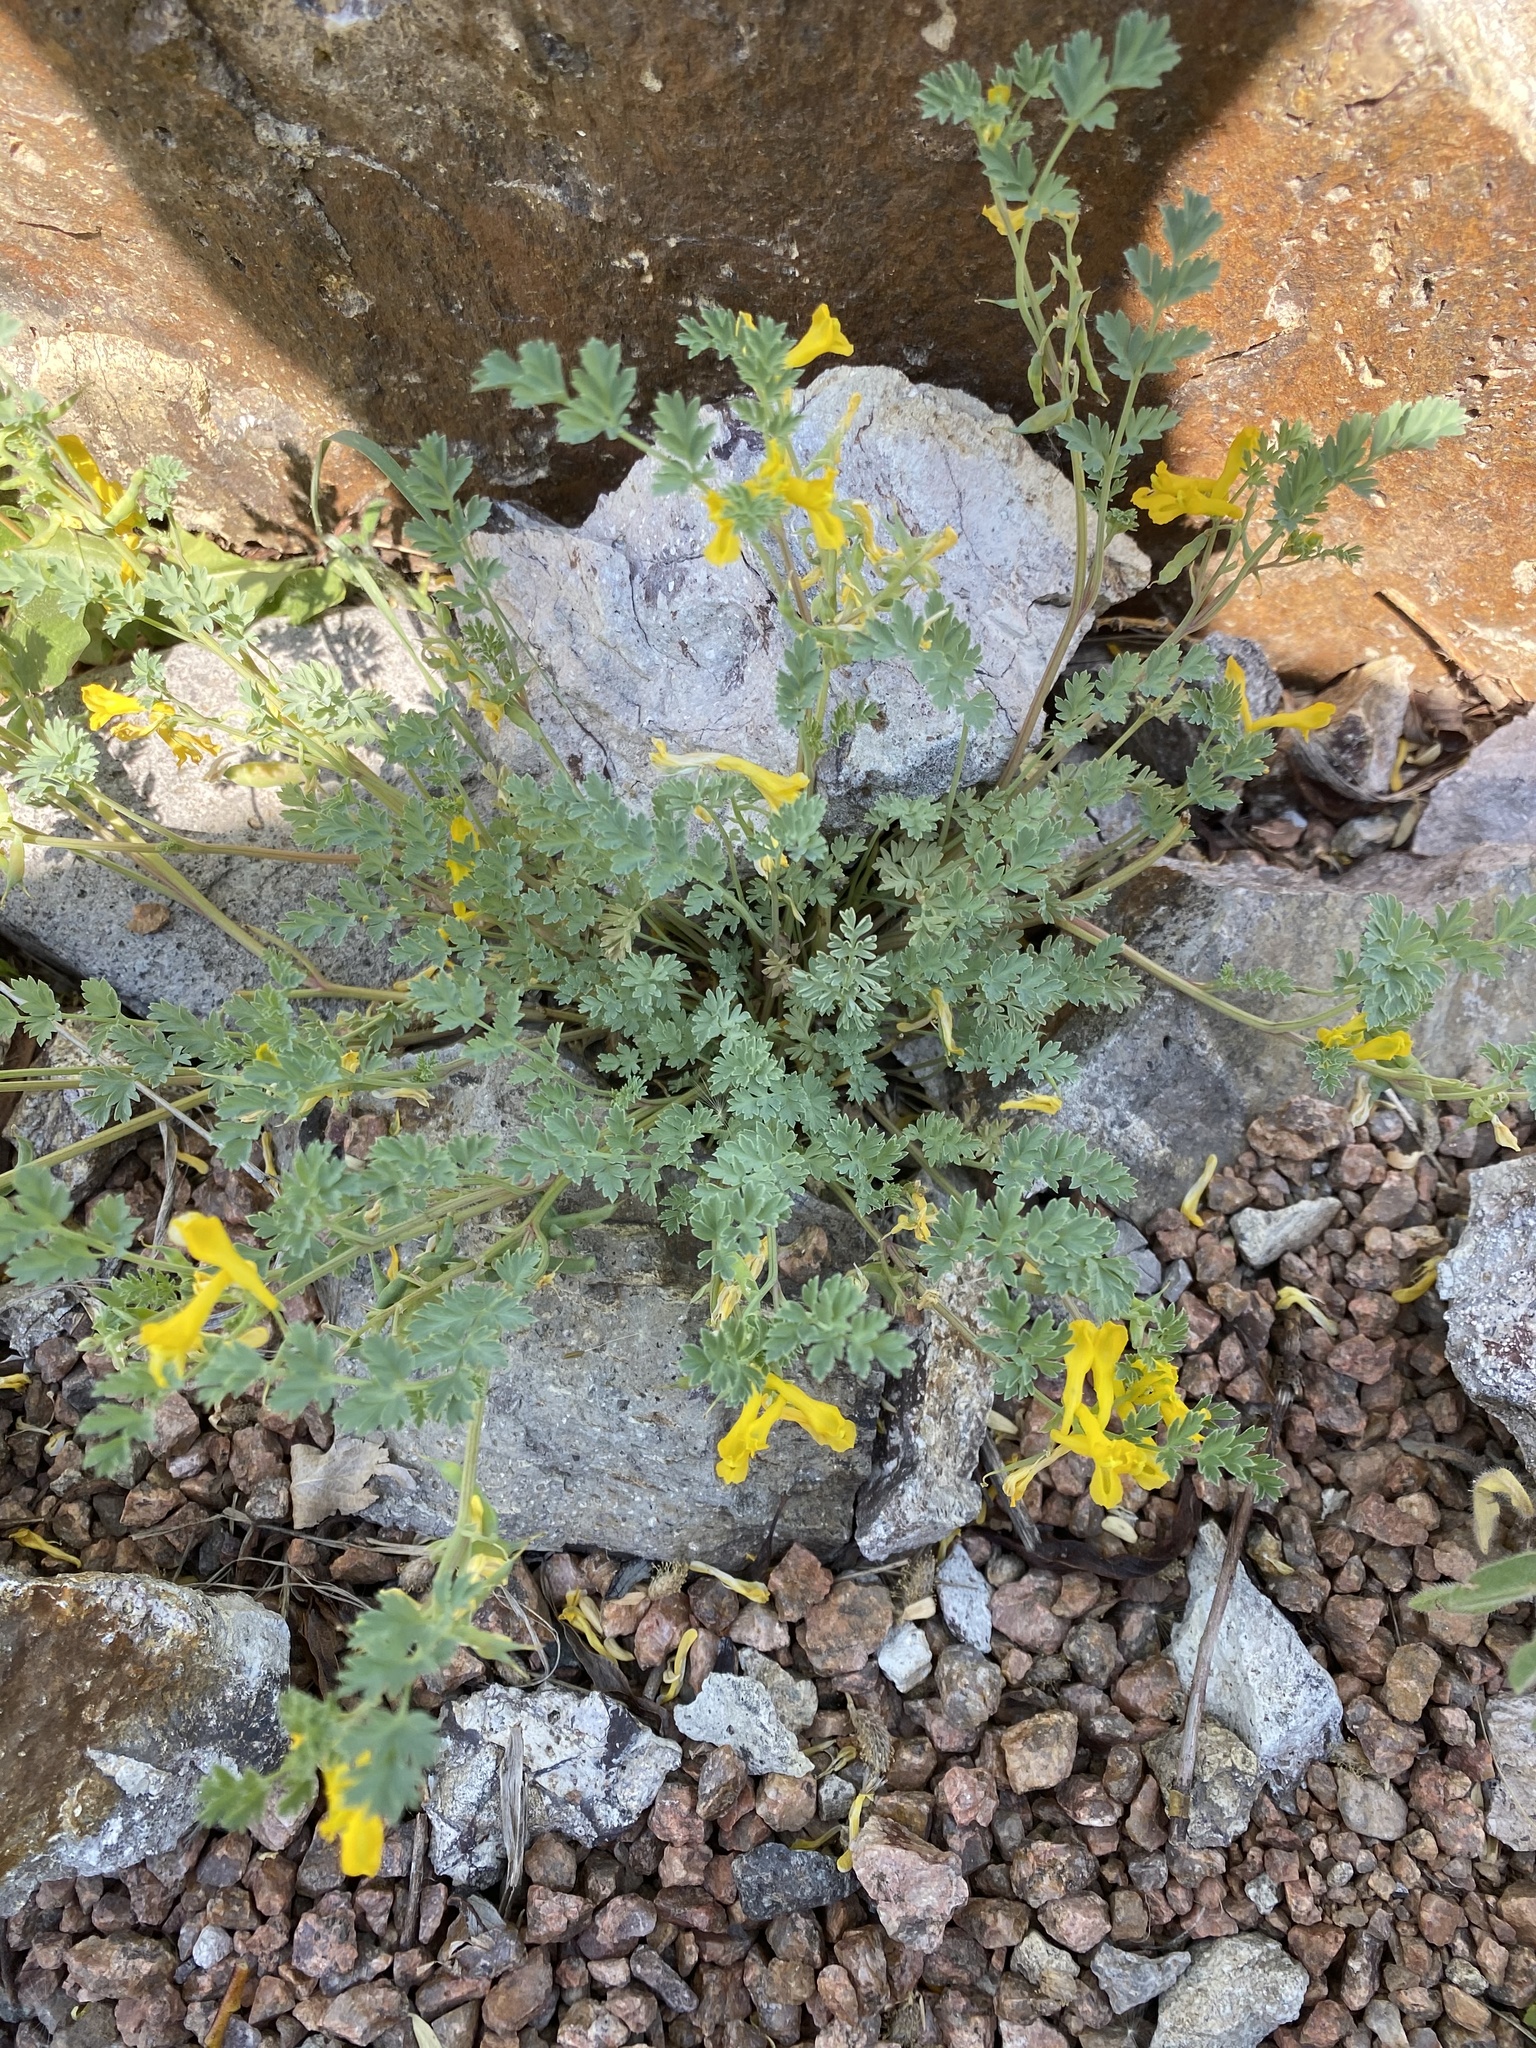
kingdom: Plantae
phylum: Tracheophyta
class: Magnoliopsida
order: Ranunculales
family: Papaveraceae
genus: Corydalis
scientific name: Corydalis aurea
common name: Golden corydalis
